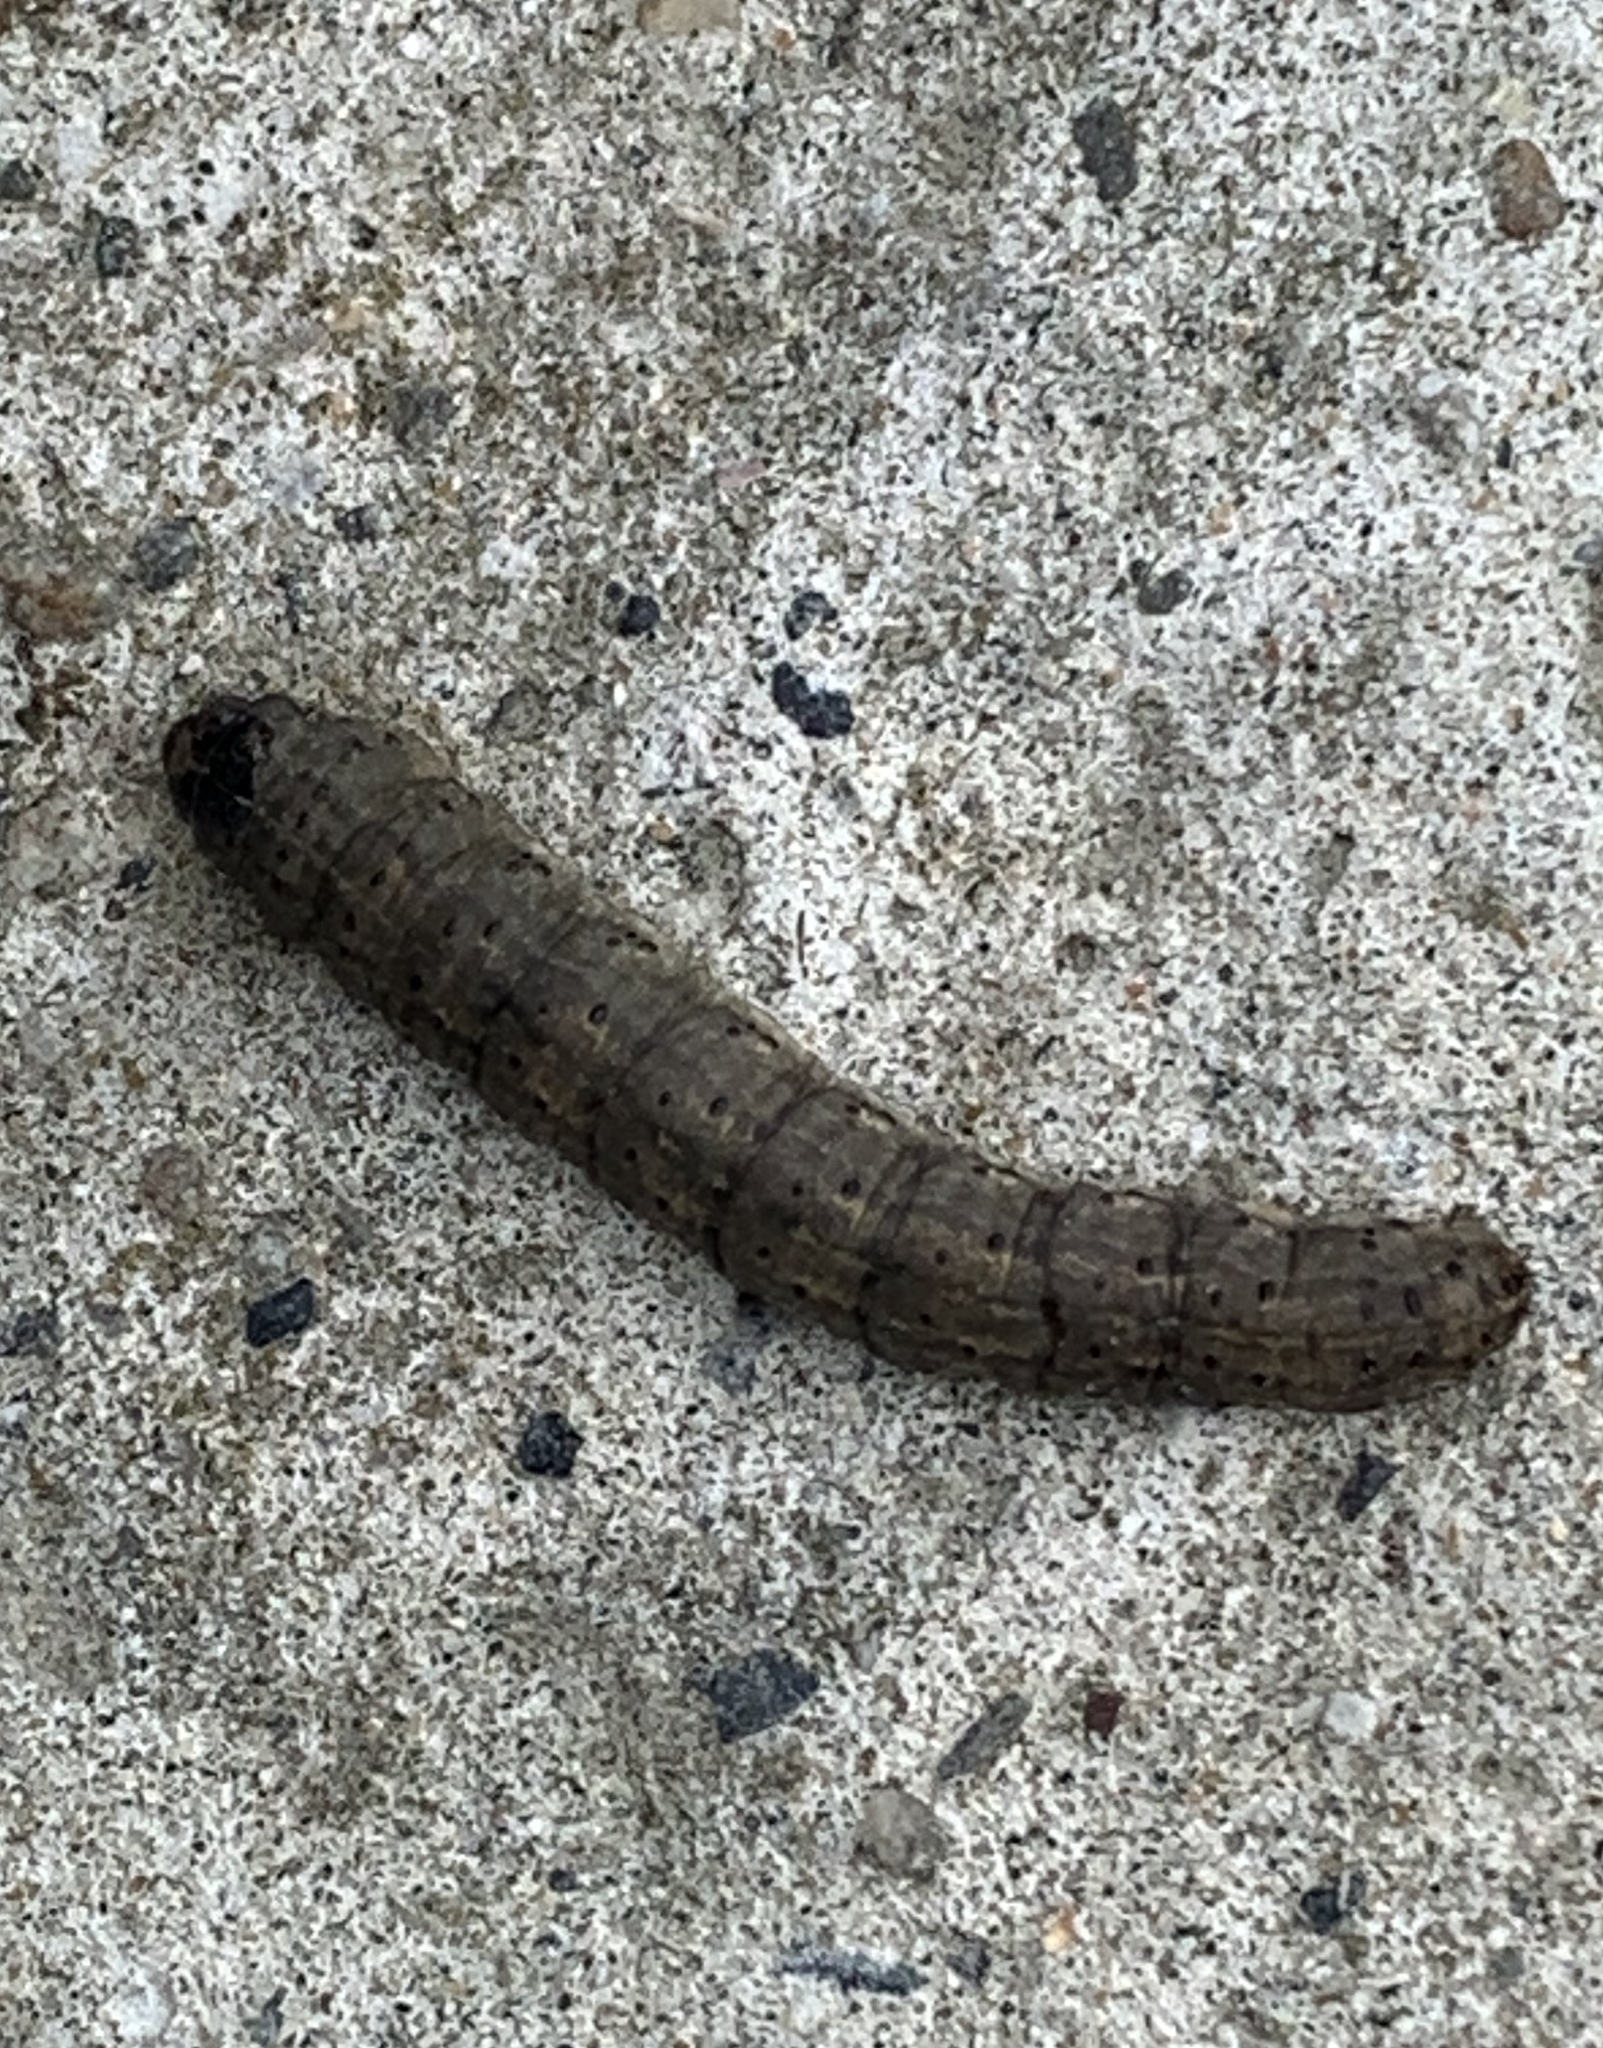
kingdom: Animalia
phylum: Arthropoda
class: Insecta
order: Lepidoptera
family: Noctuidae
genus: Agrotis
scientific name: Agrotis ipsilon
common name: Dark sword-grass
